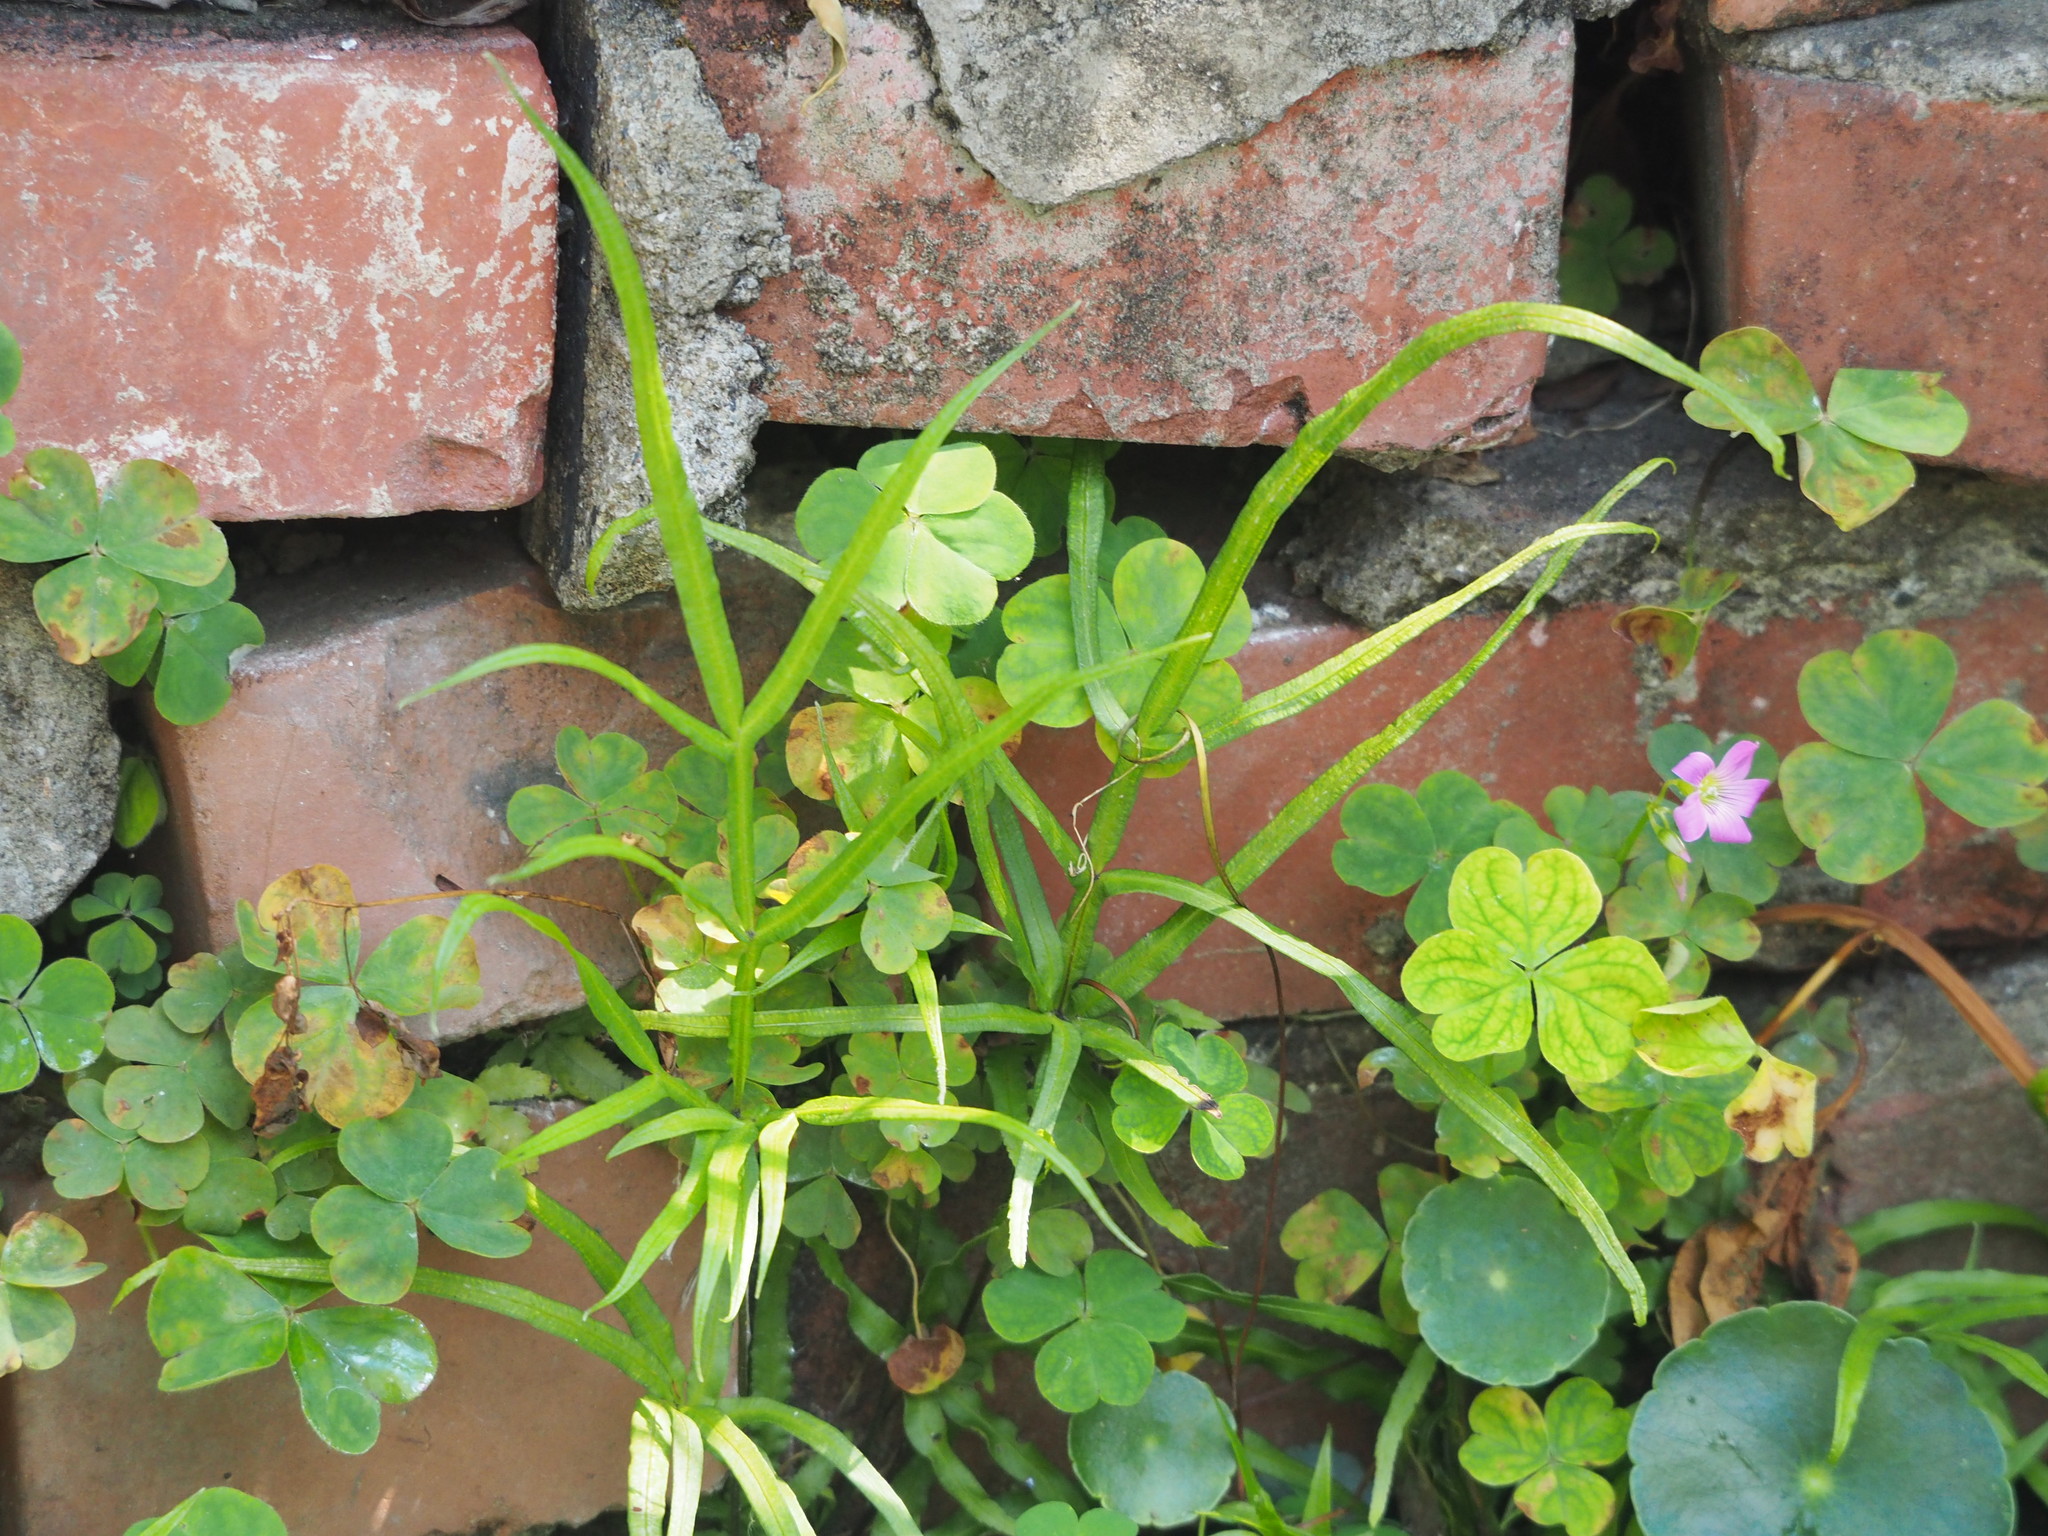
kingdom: Plantae
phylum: Tracheophyta
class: Polypodiopsida
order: Polypodiales
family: Pteridaceae
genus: Pteris
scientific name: Pteris multifida
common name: Spider brake
